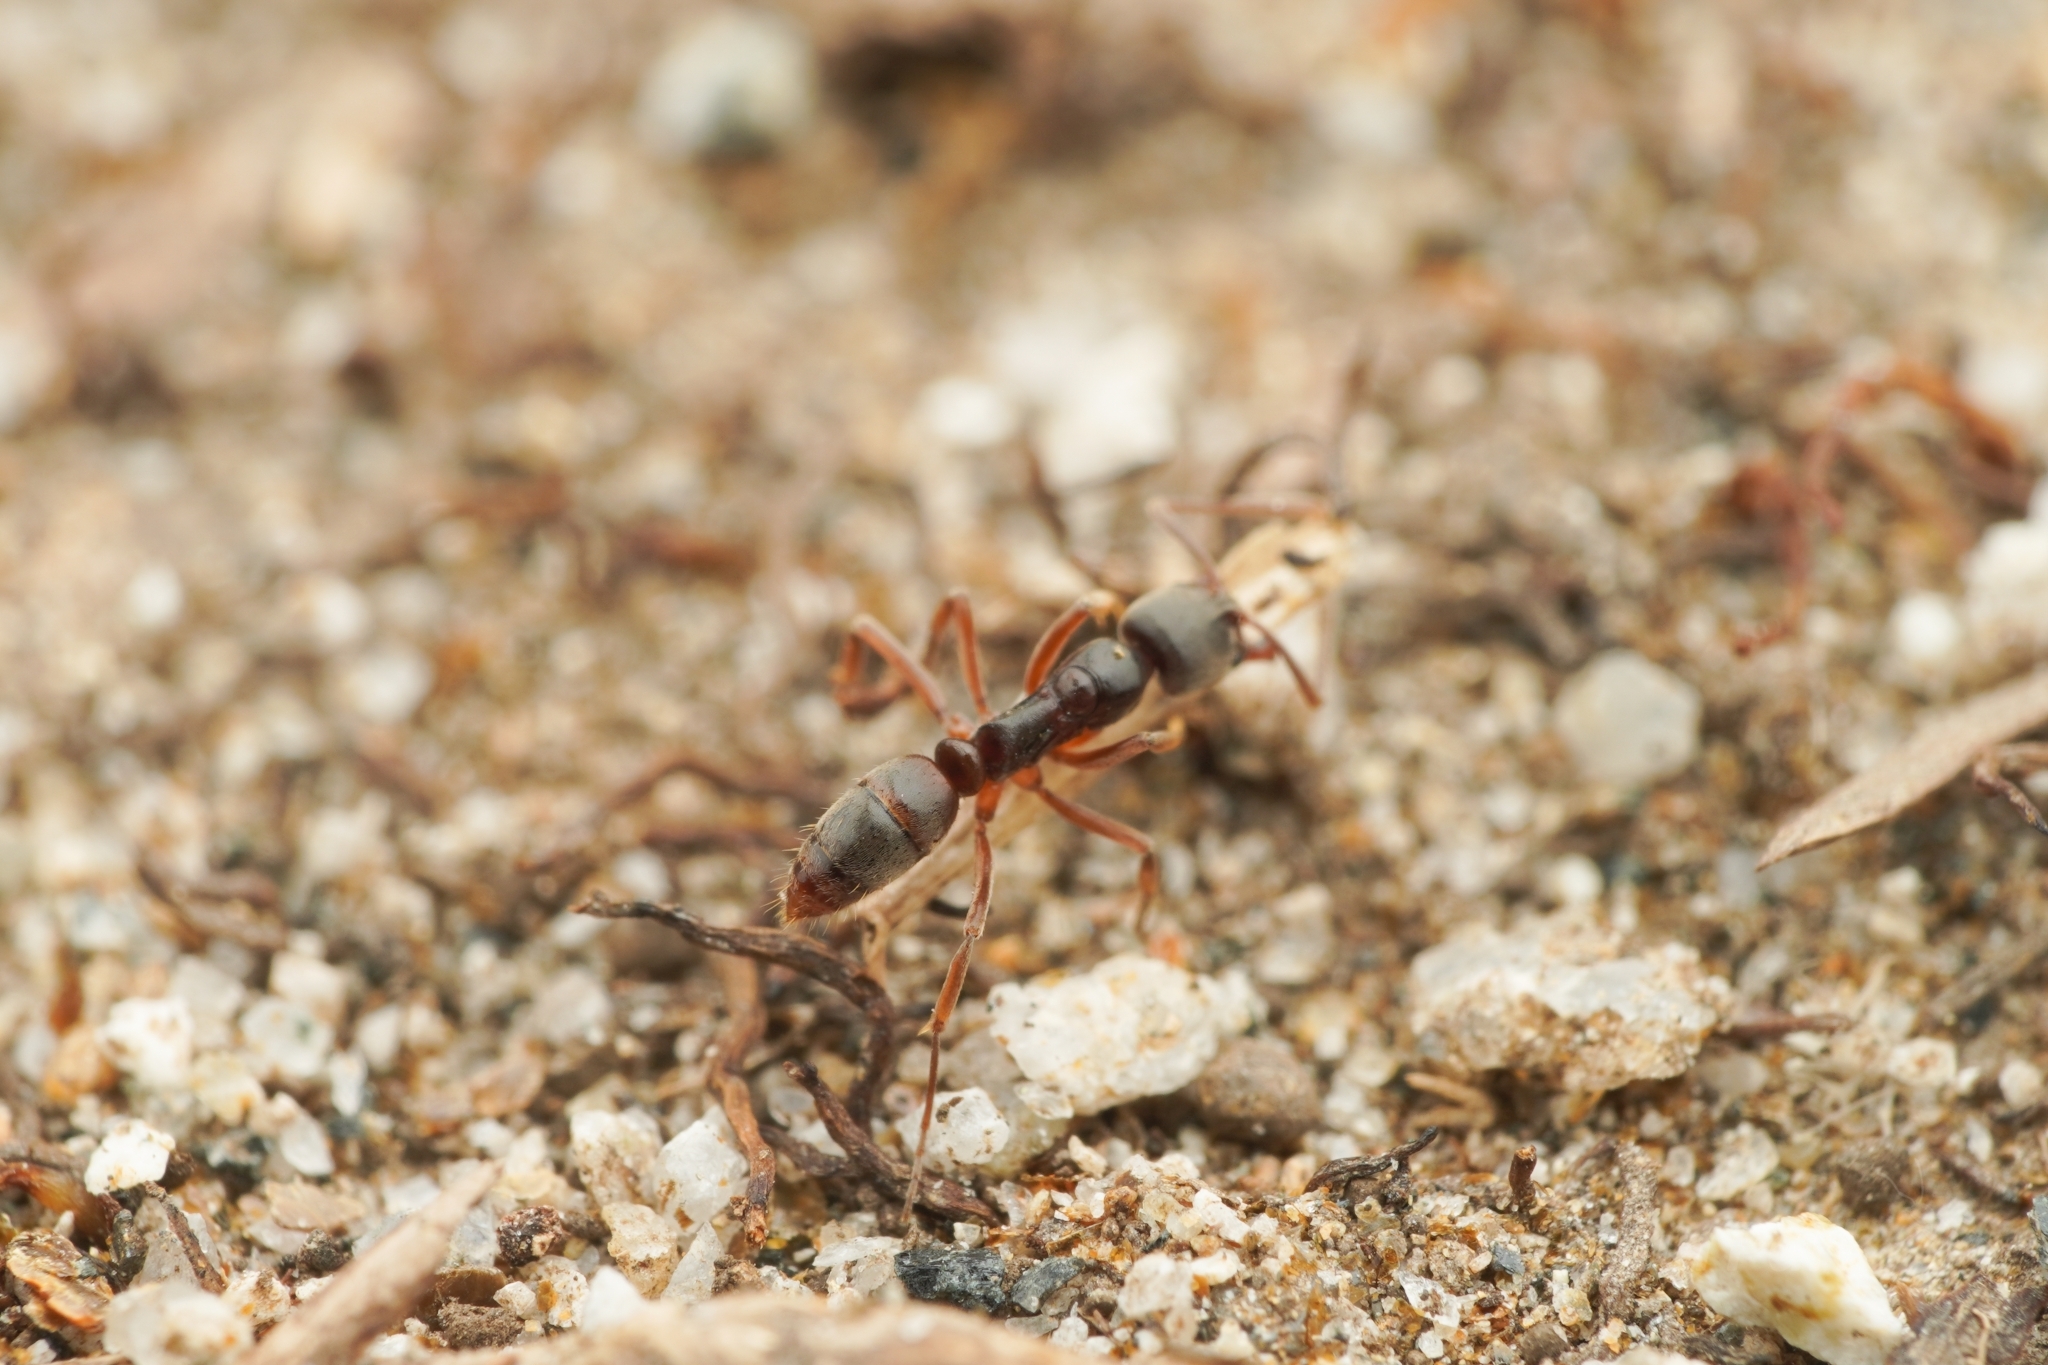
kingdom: Animalia
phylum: Arthropoda
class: Insecta
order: Hymenoptera
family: Formicidae
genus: Pachycondyla
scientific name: Pachycondyla chinensis
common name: Asian needle ant
